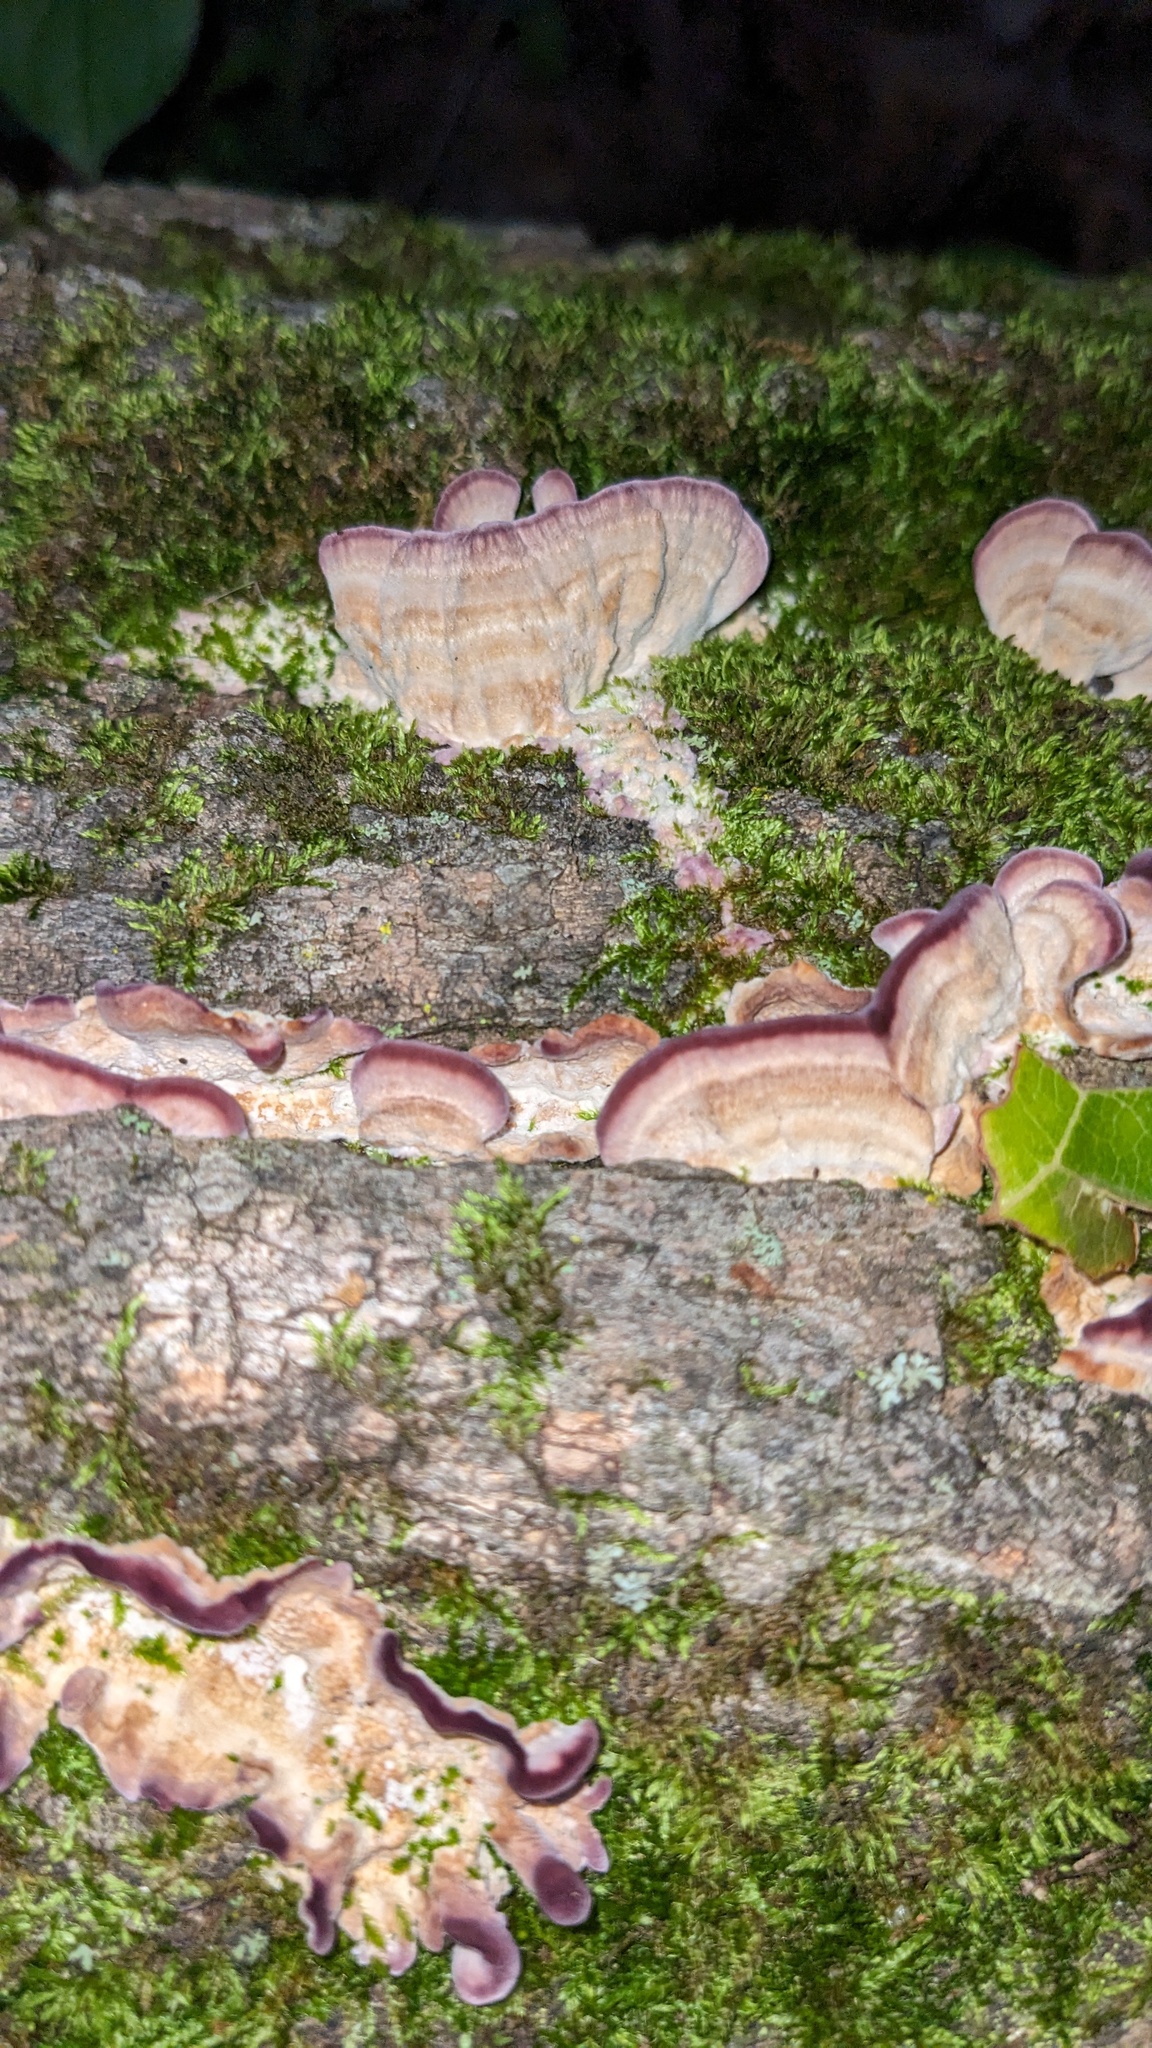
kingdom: Fungi
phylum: Basidiomycota
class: Agaricomycetes
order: Hymenochaetales
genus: Trichaptum
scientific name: Trichaptum biforme
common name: Violet-toothed polypore
